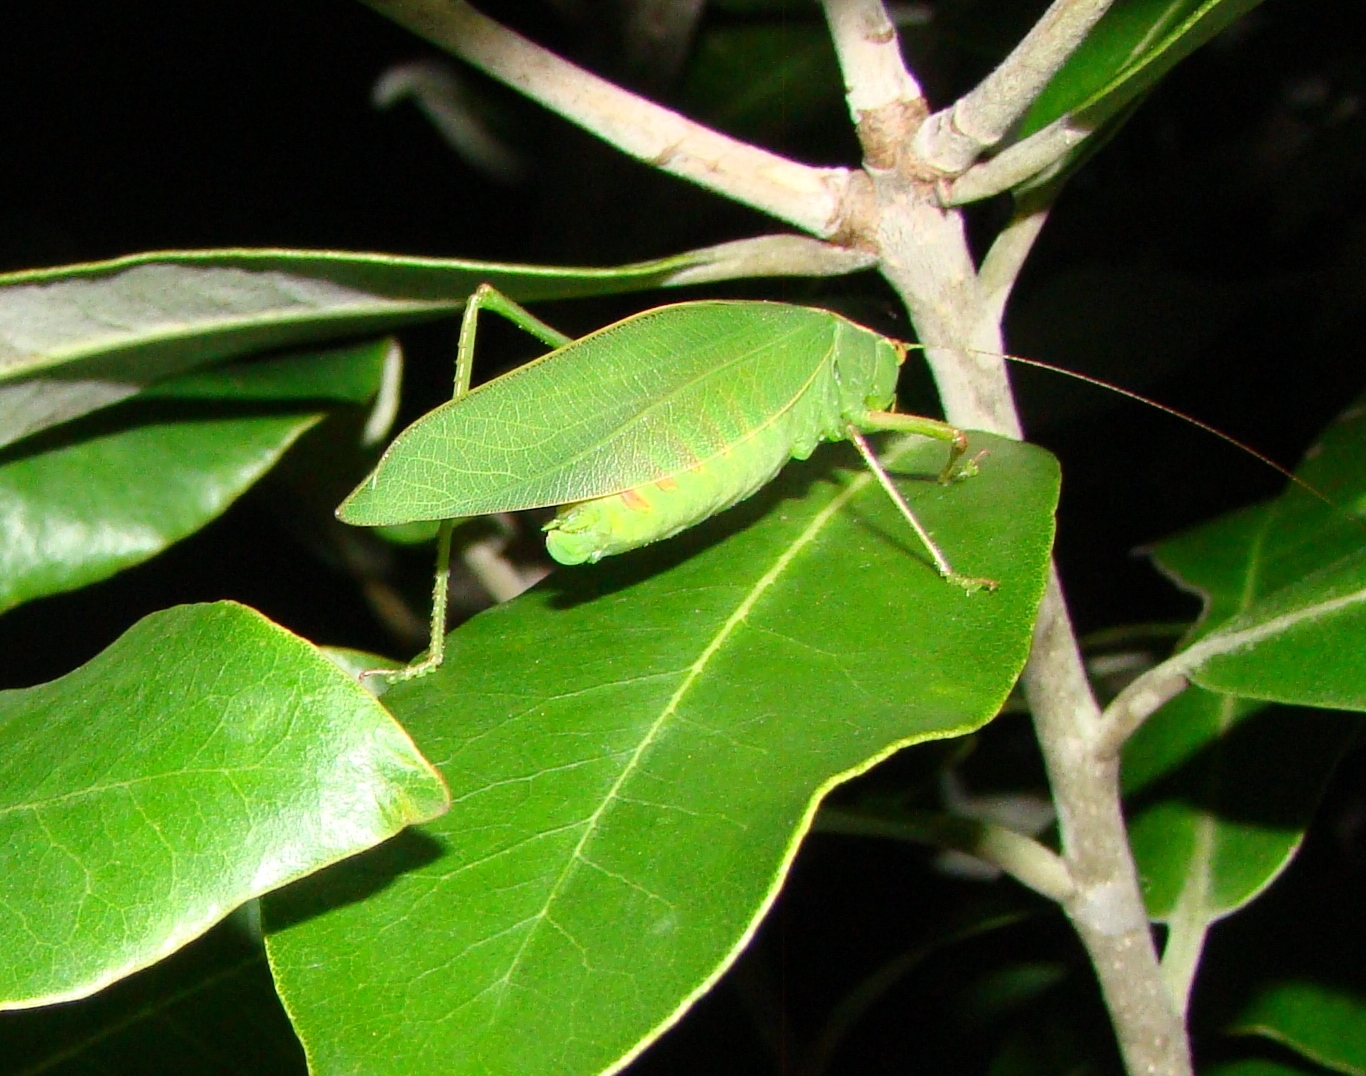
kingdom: Animalia
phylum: Arthropoda
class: Insecta
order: Orthoptera
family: Tettigoniidae
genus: Caedicia
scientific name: Caedicia simplex
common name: Common garden katydid
